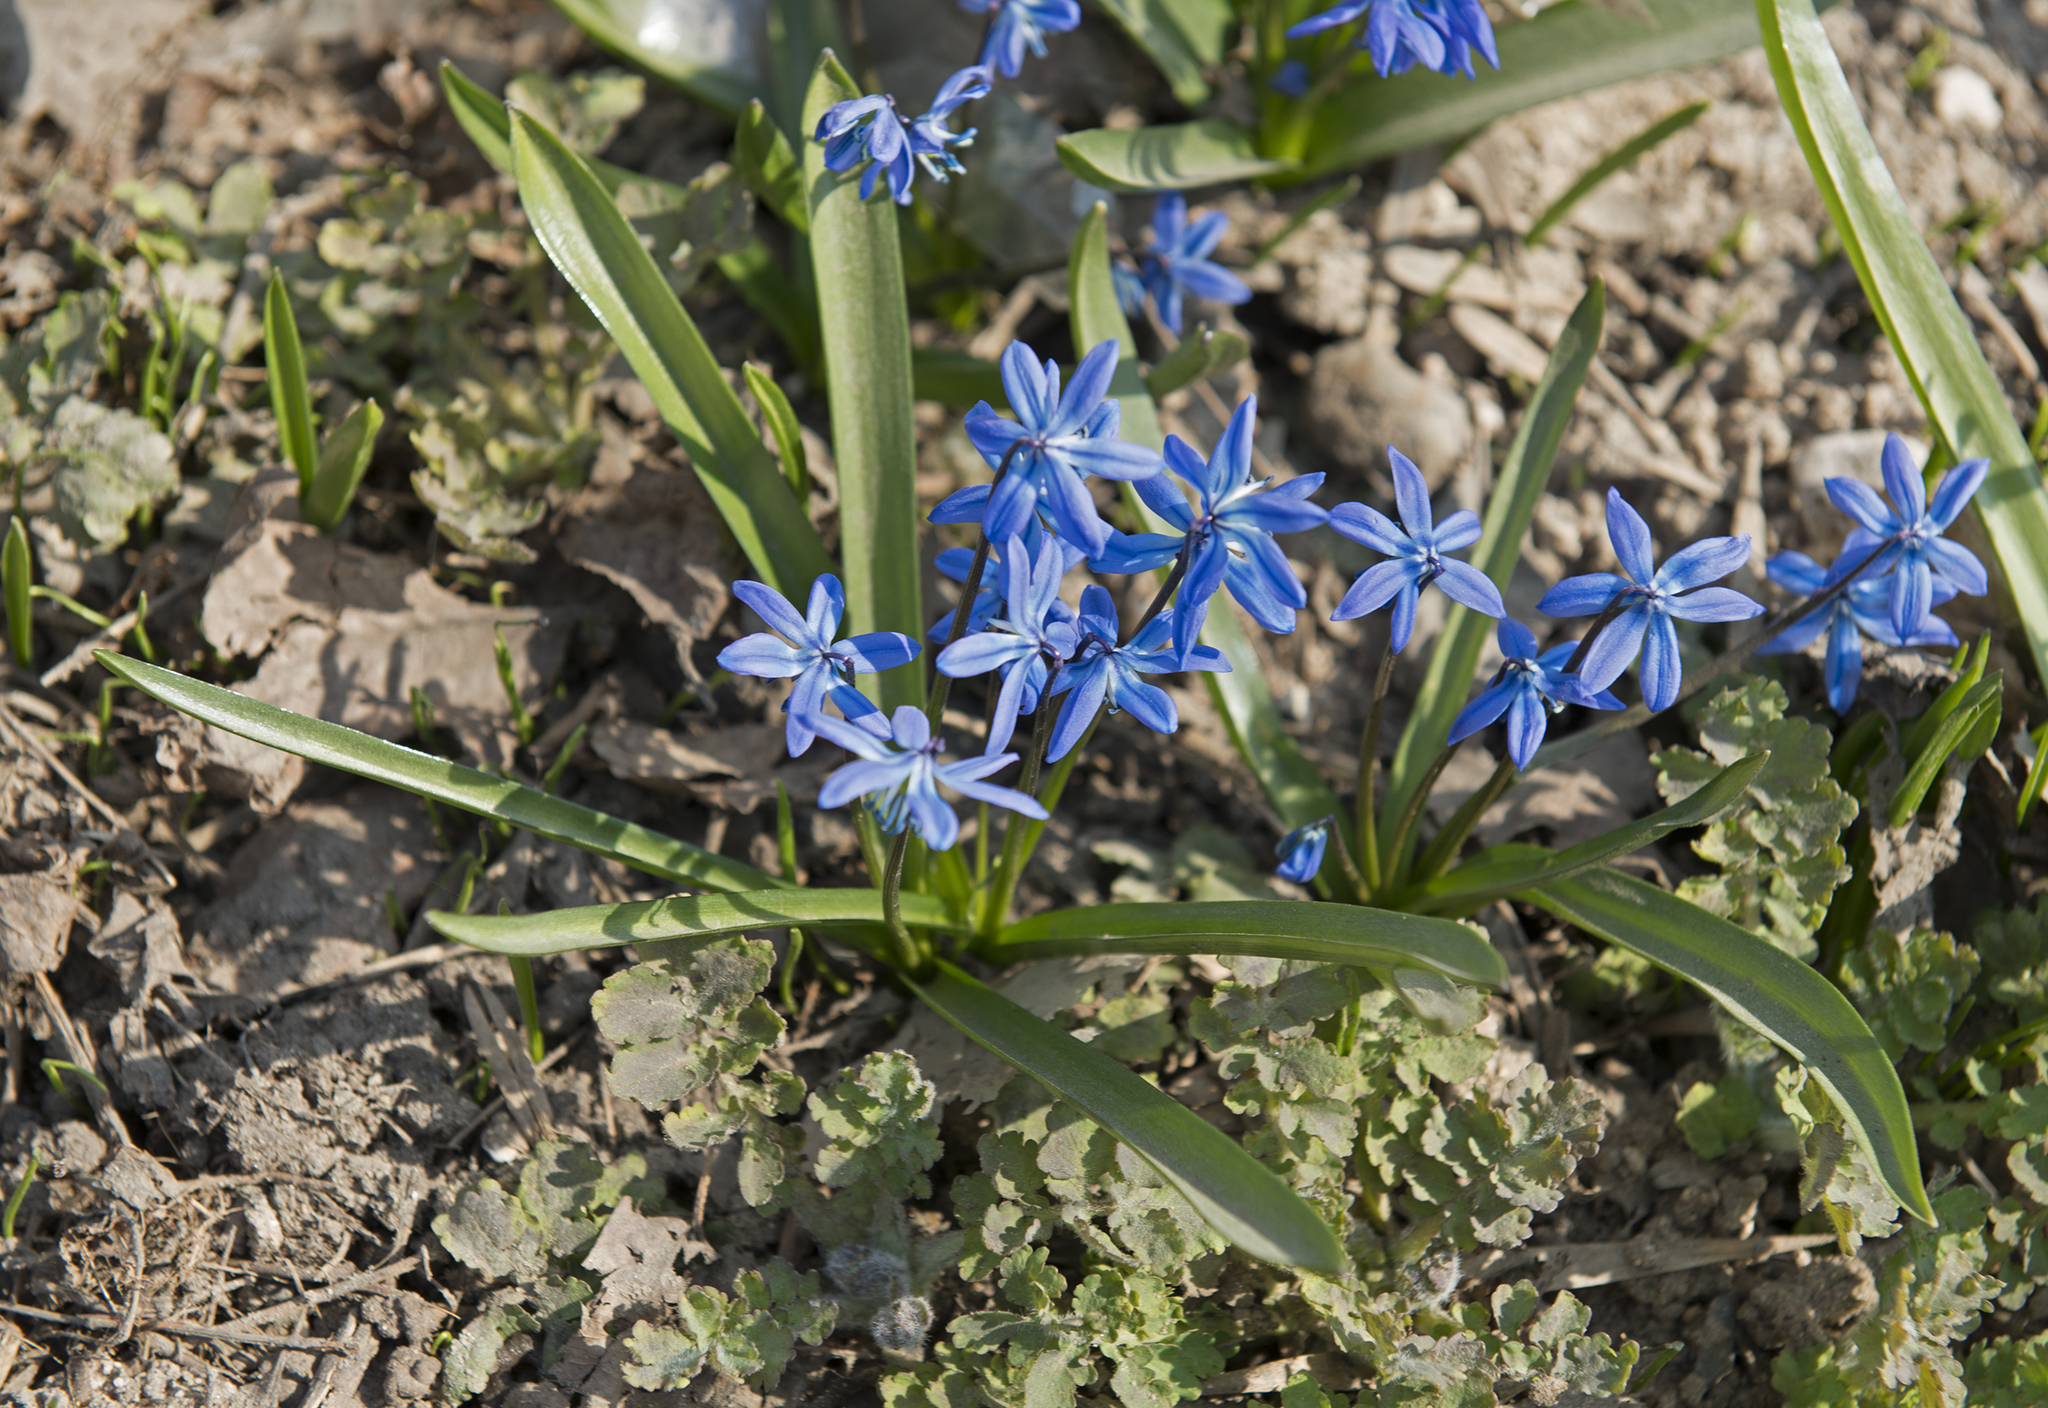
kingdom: Plantae
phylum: Tracheophyta
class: Liliopsida
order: Asparagales
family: Asparagaceae
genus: Scilla
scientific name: Scilla siberica
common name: Siberian squill
